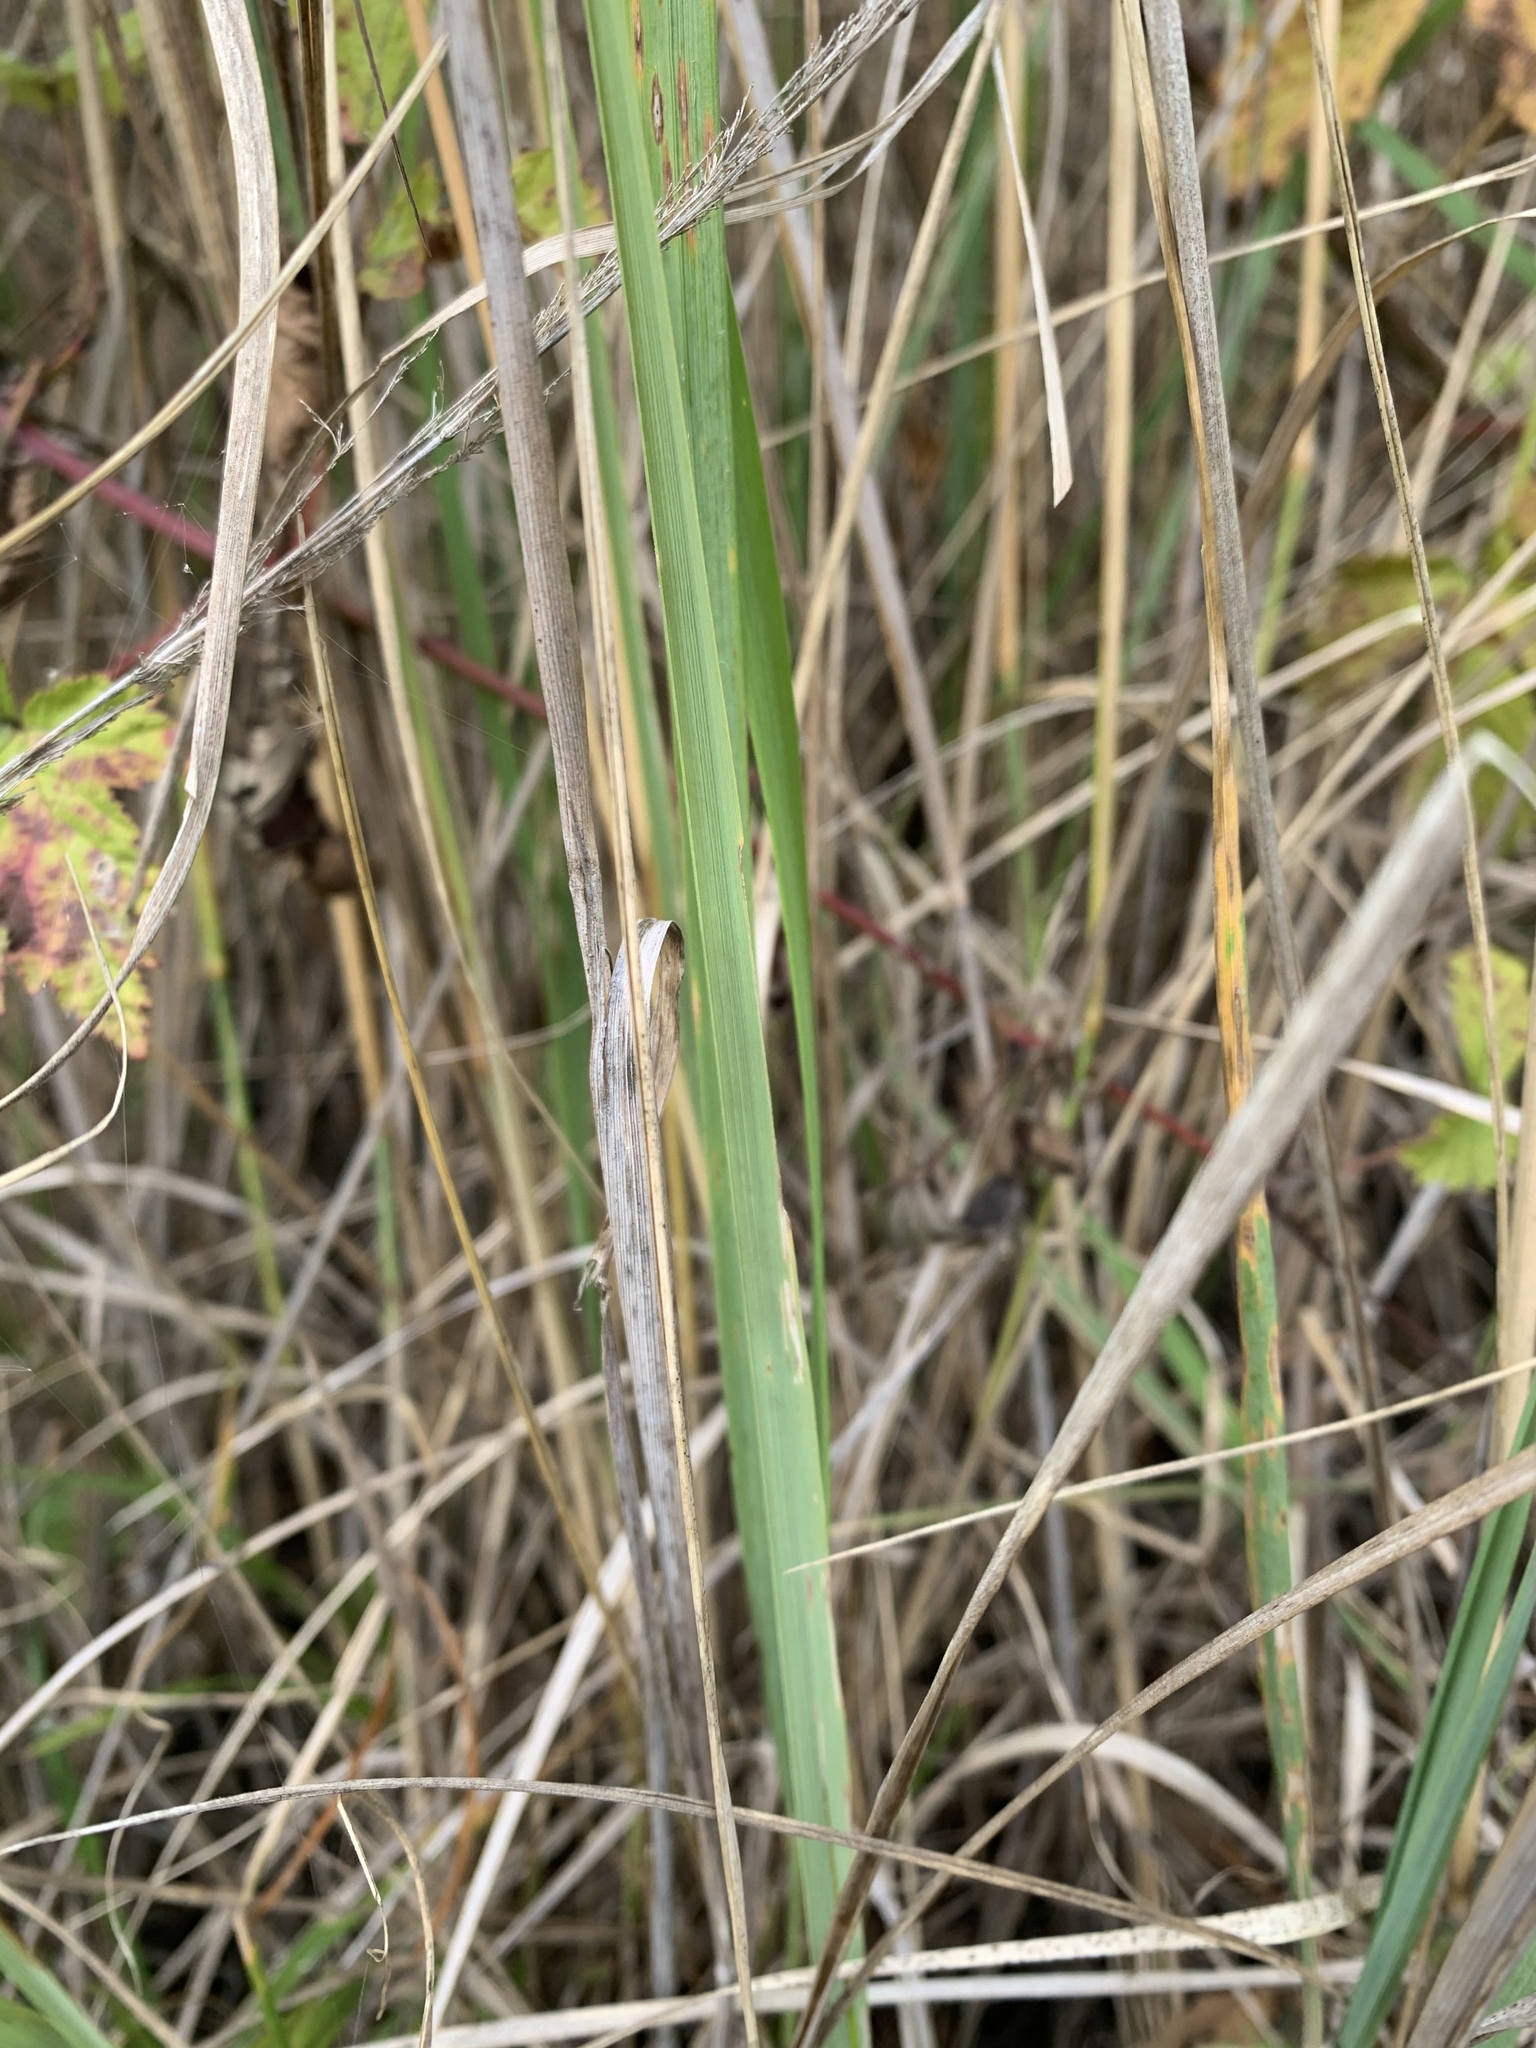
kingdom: Plantae
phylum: Tracheophyta
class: Liliopsida
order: Poales
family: Poaceae
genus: Calamagrostis
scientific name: Calamagrostis epigejos
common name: Wood small-reed
